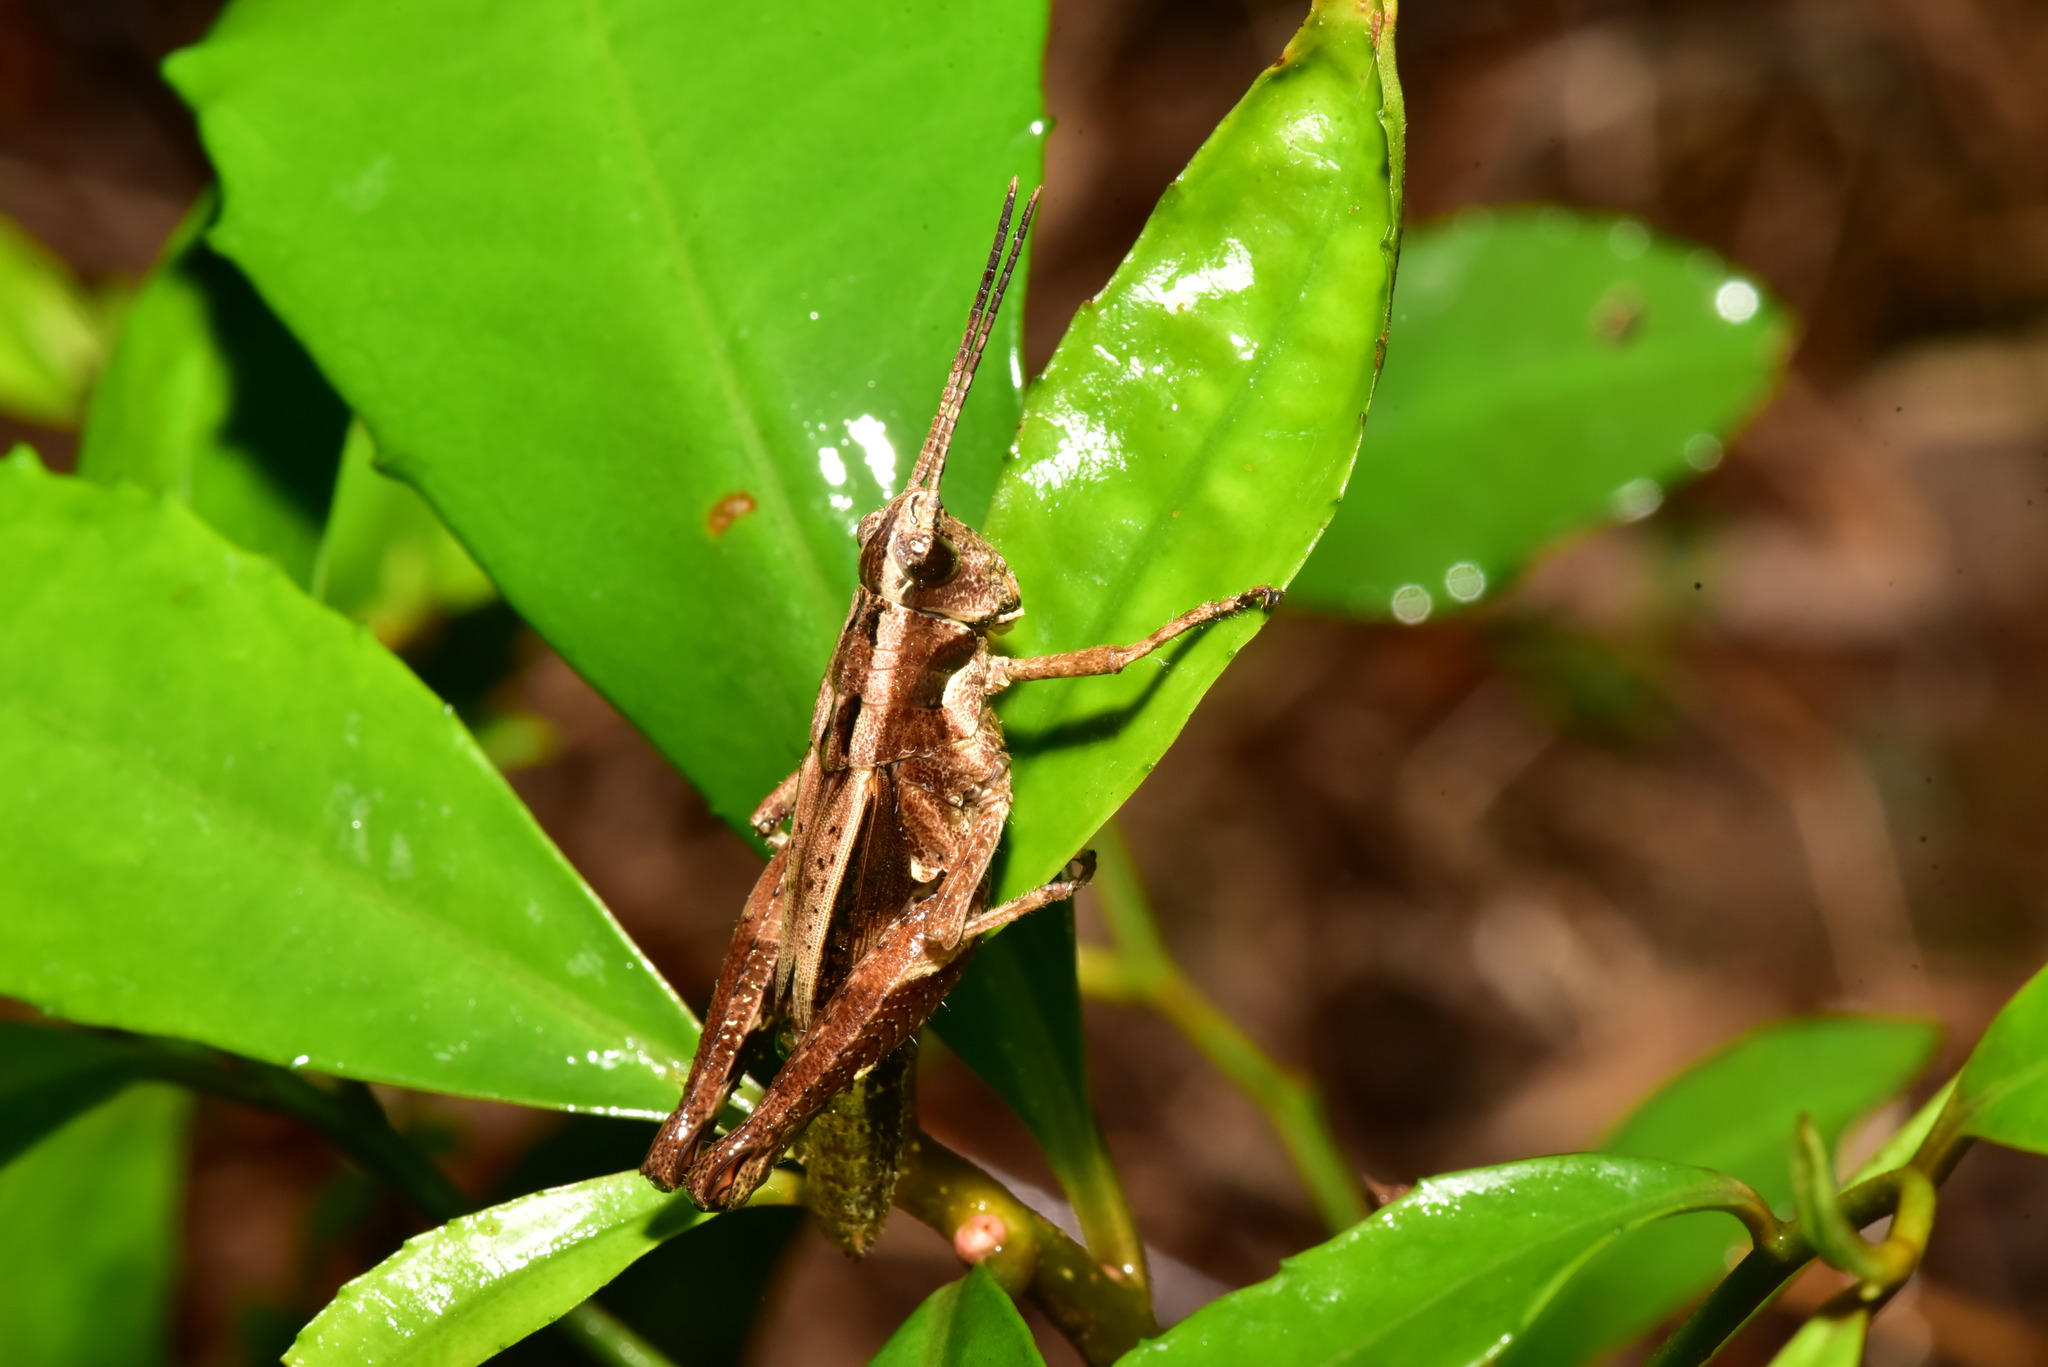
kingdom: Animalia
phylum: Arthropoda
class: Insecta
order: Orthoptera
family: Acrididae
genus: Traulia
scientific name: Traulia ornata
